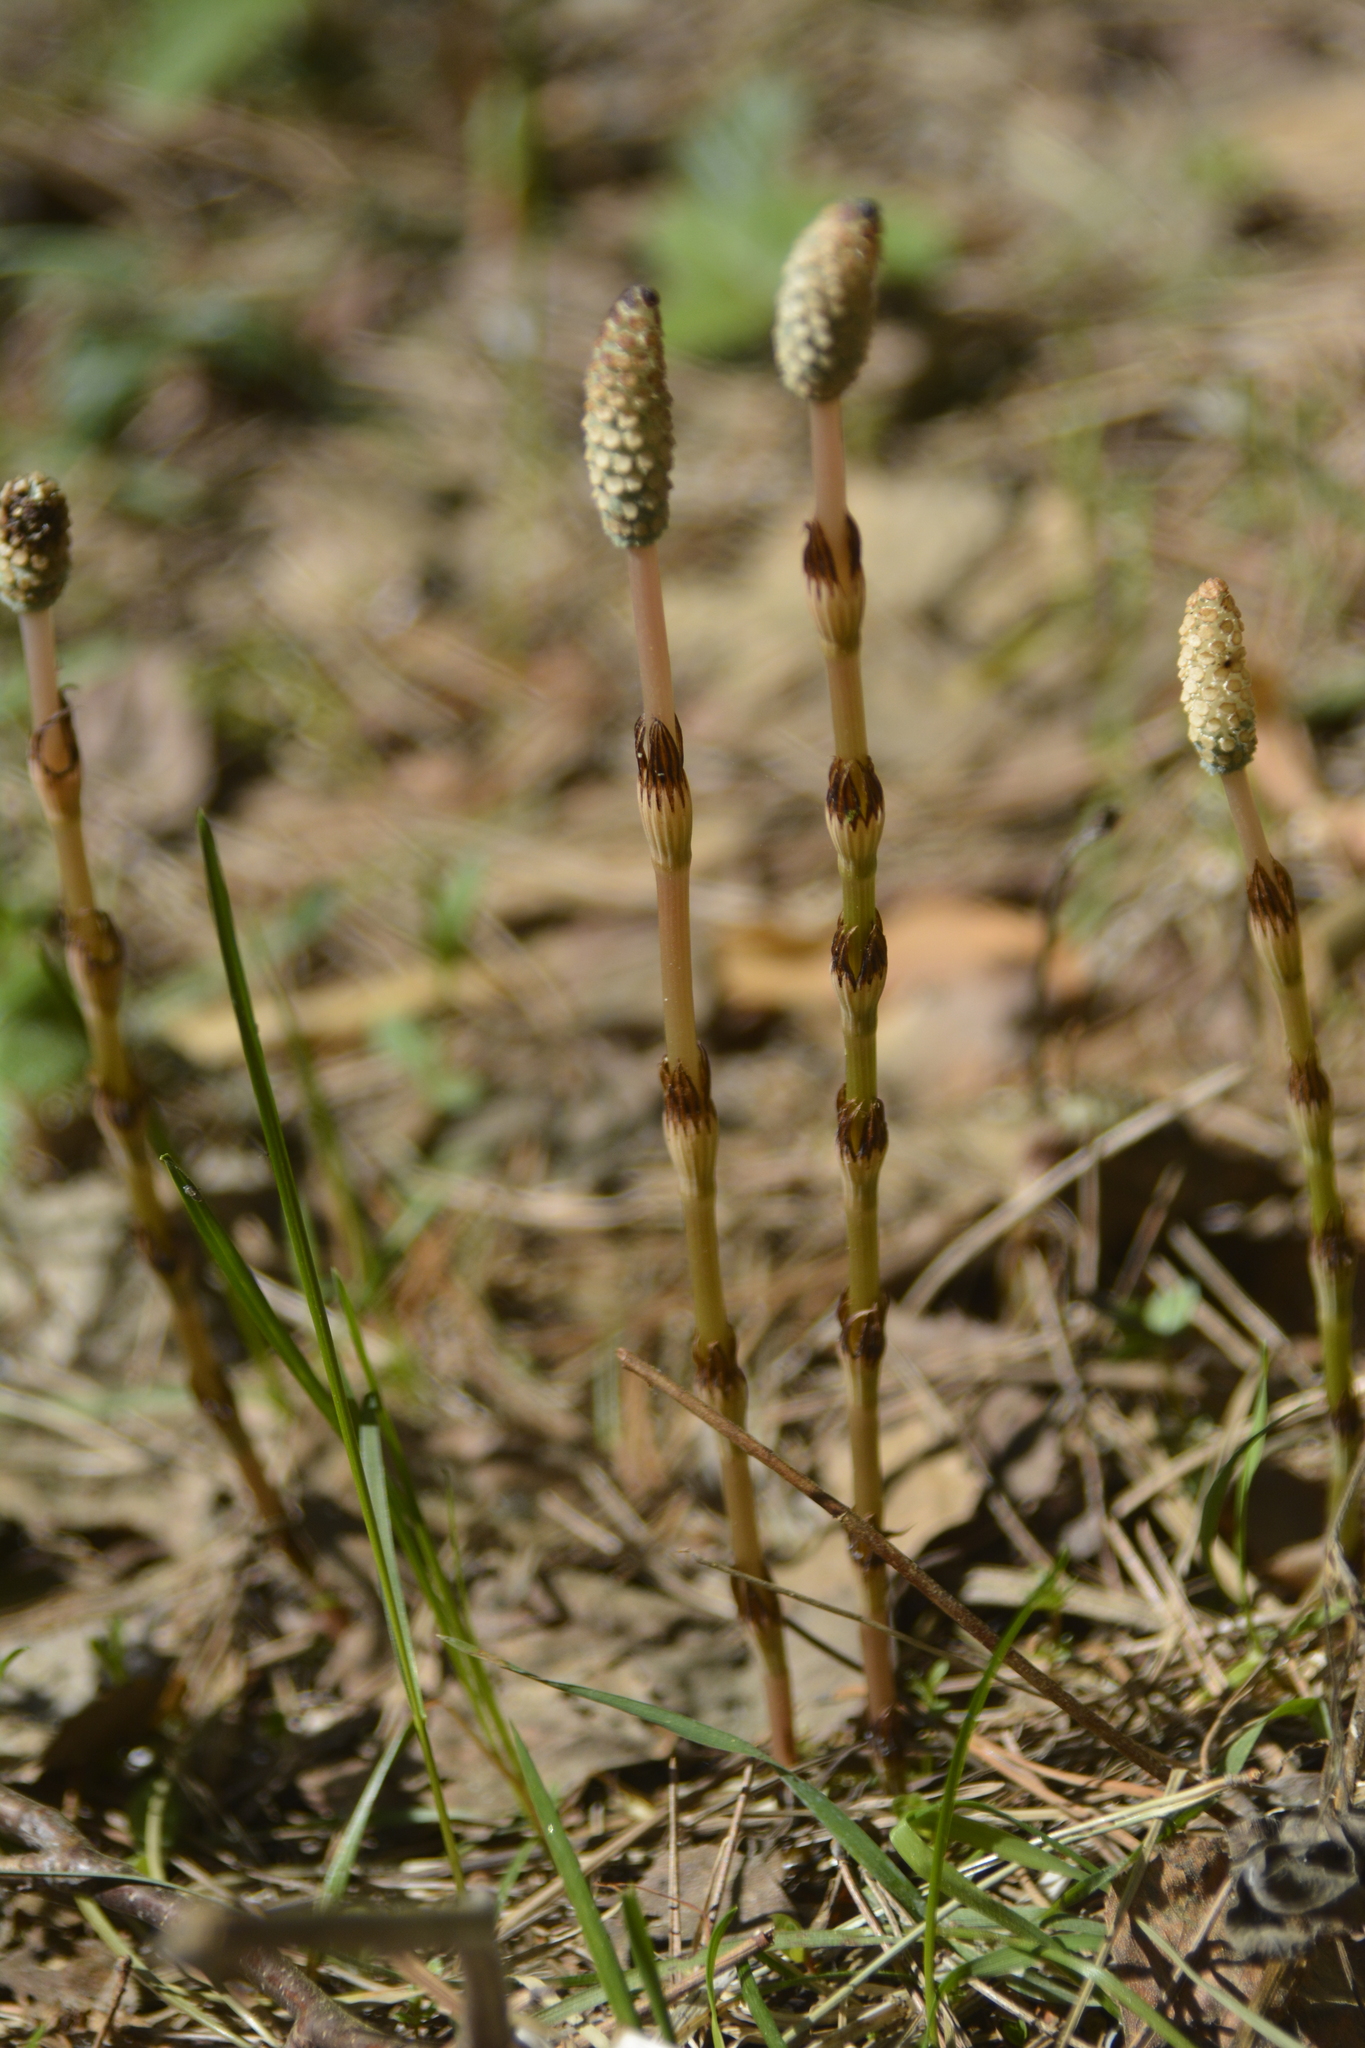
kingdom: Plantae
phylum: Tracheophyta
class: Polypodiopsida
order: Equisetales
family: Equisetaceae
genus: Equisetum
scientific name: Equisetum pratense
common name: Meadow horsetail
